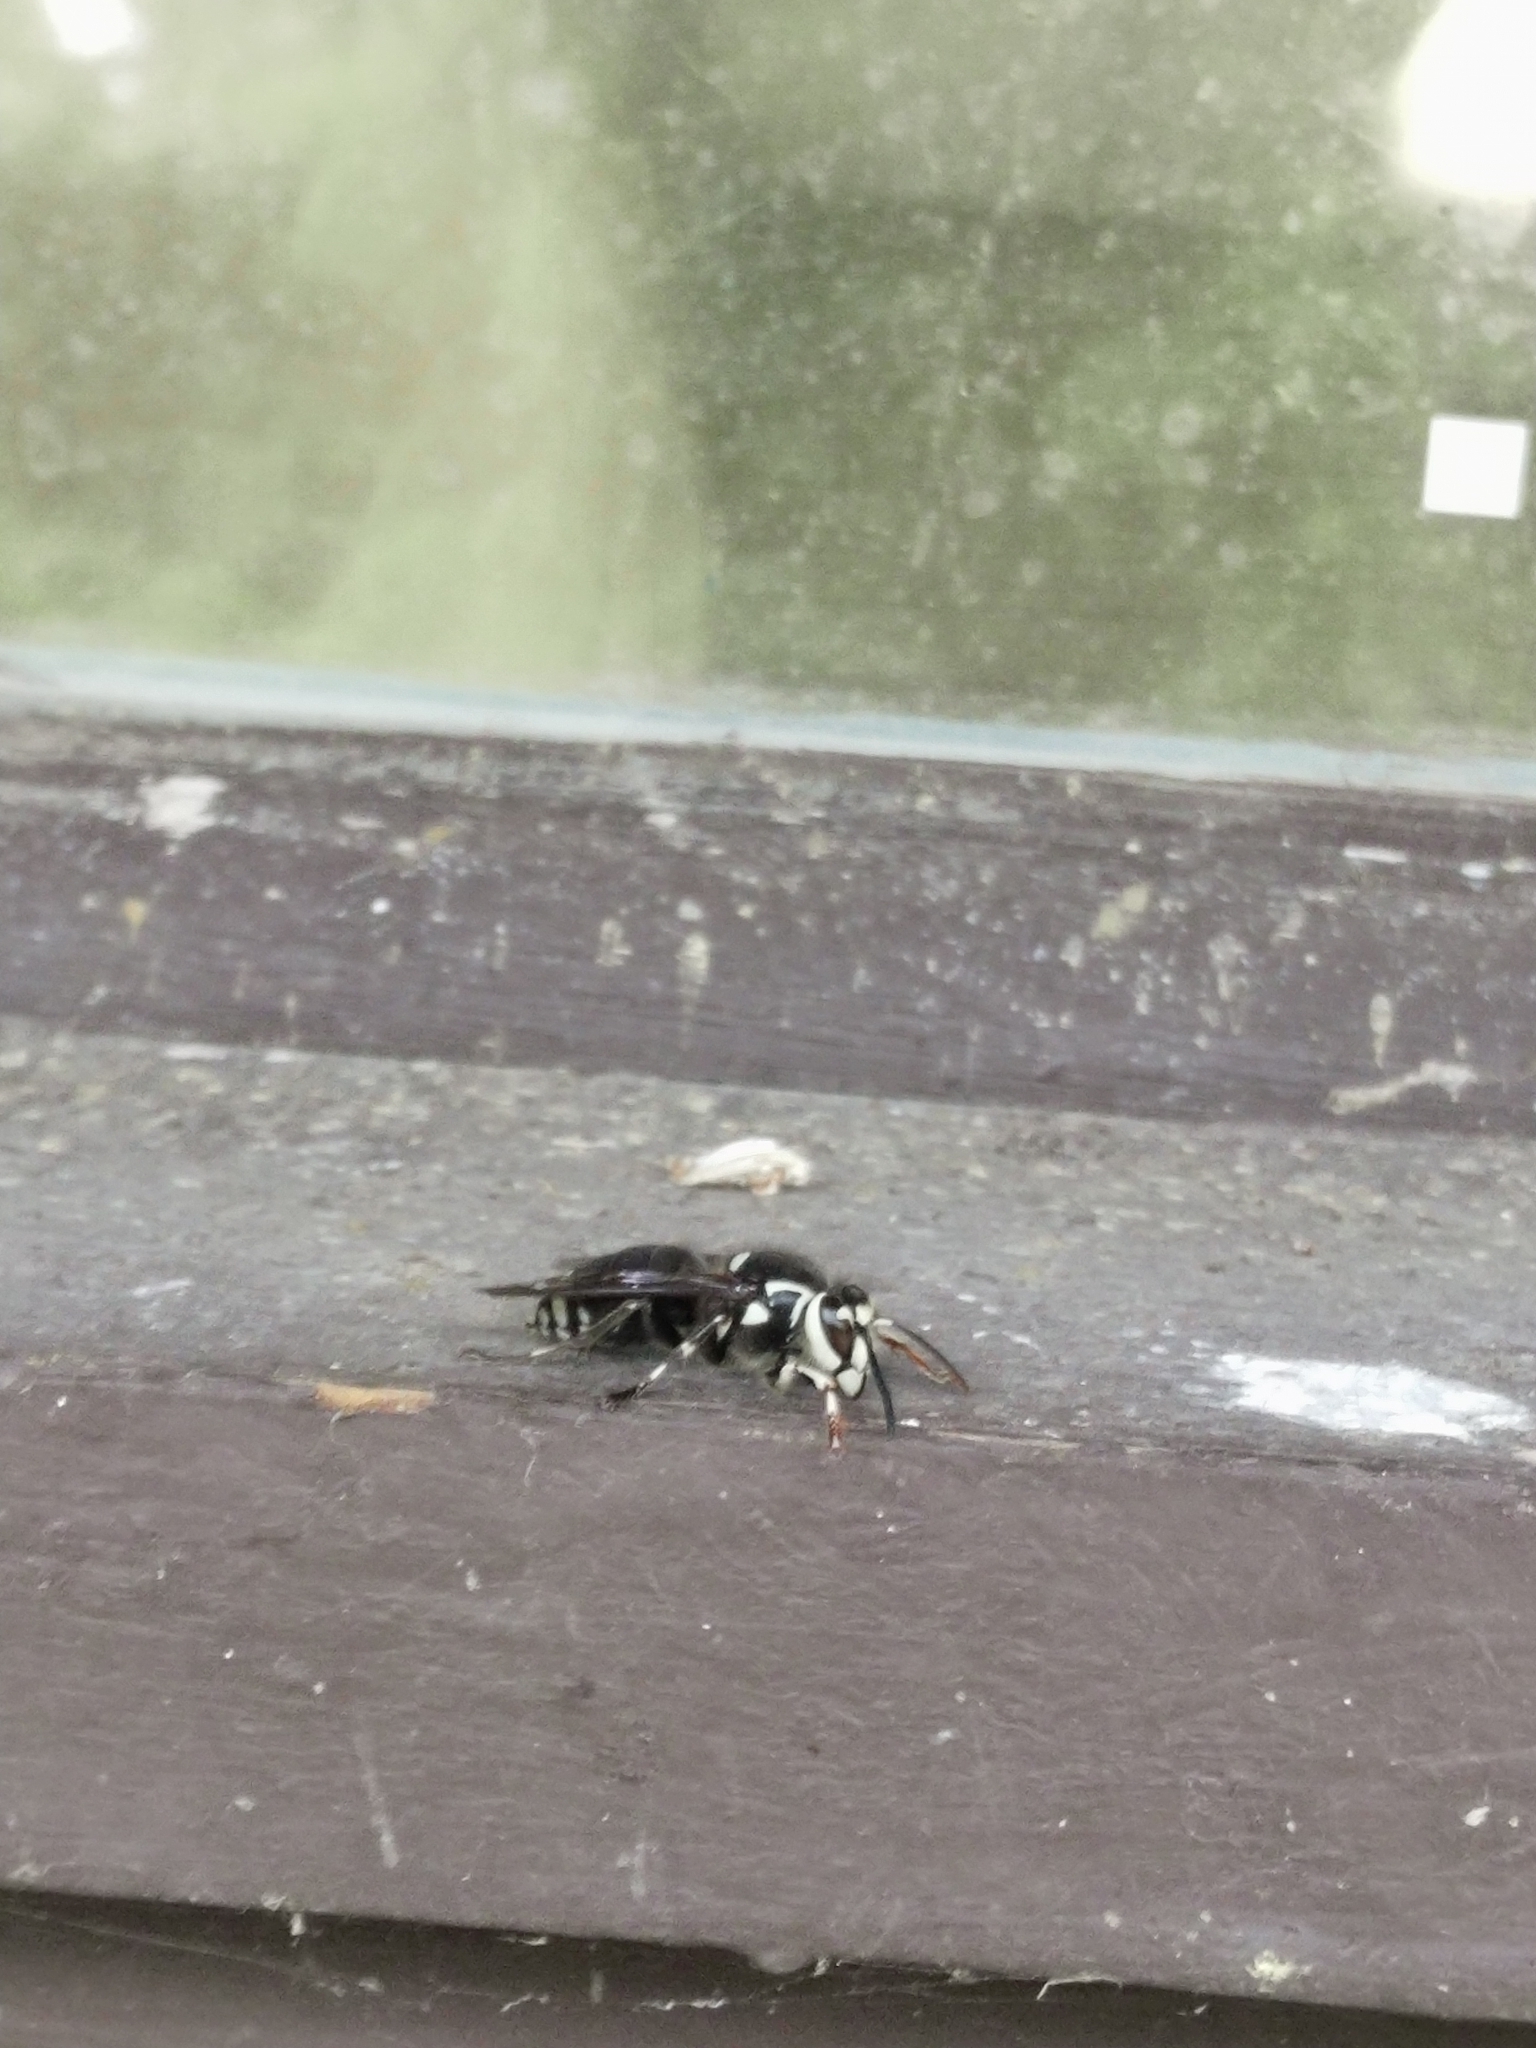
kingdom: Animalia
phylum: Arthropoda
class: Insecta
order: Hymenoptera
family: Vespidae
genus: Dolichovespula
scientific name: Dolichovespula maculata
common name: Bald-faced hornet
